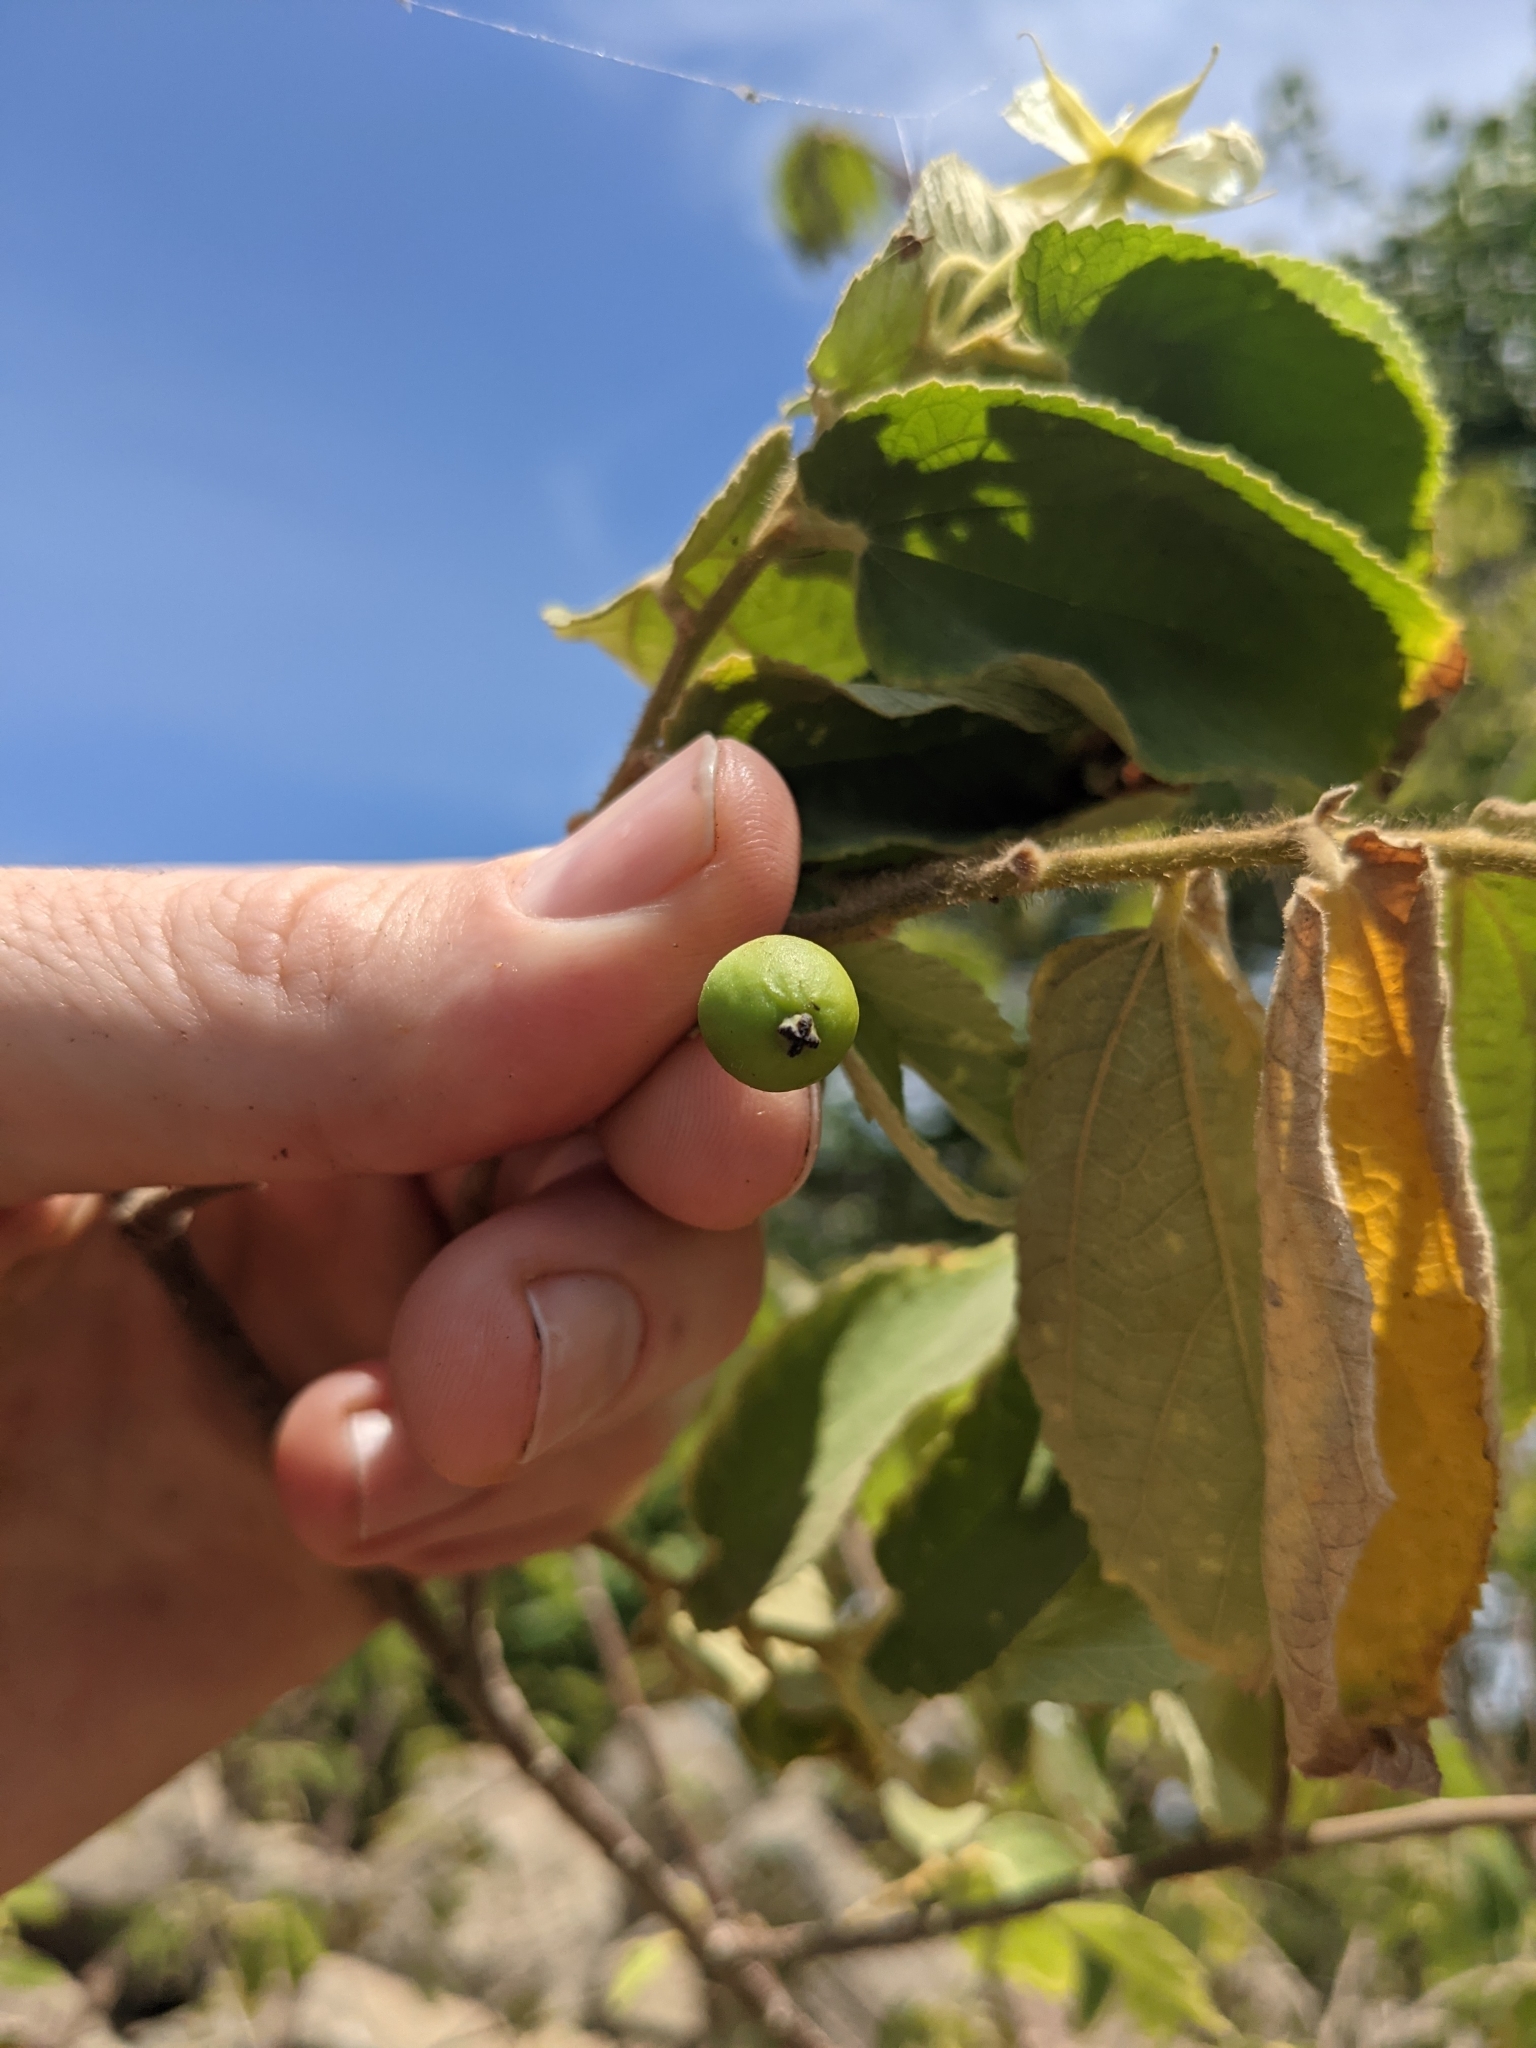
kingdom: Plantae
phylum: Tracheophyta
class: Magnoliopsida
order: Malvales
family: Muntingiaceae
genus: Muntingia
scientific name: Muntingia calabura
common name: Strawberrytree
